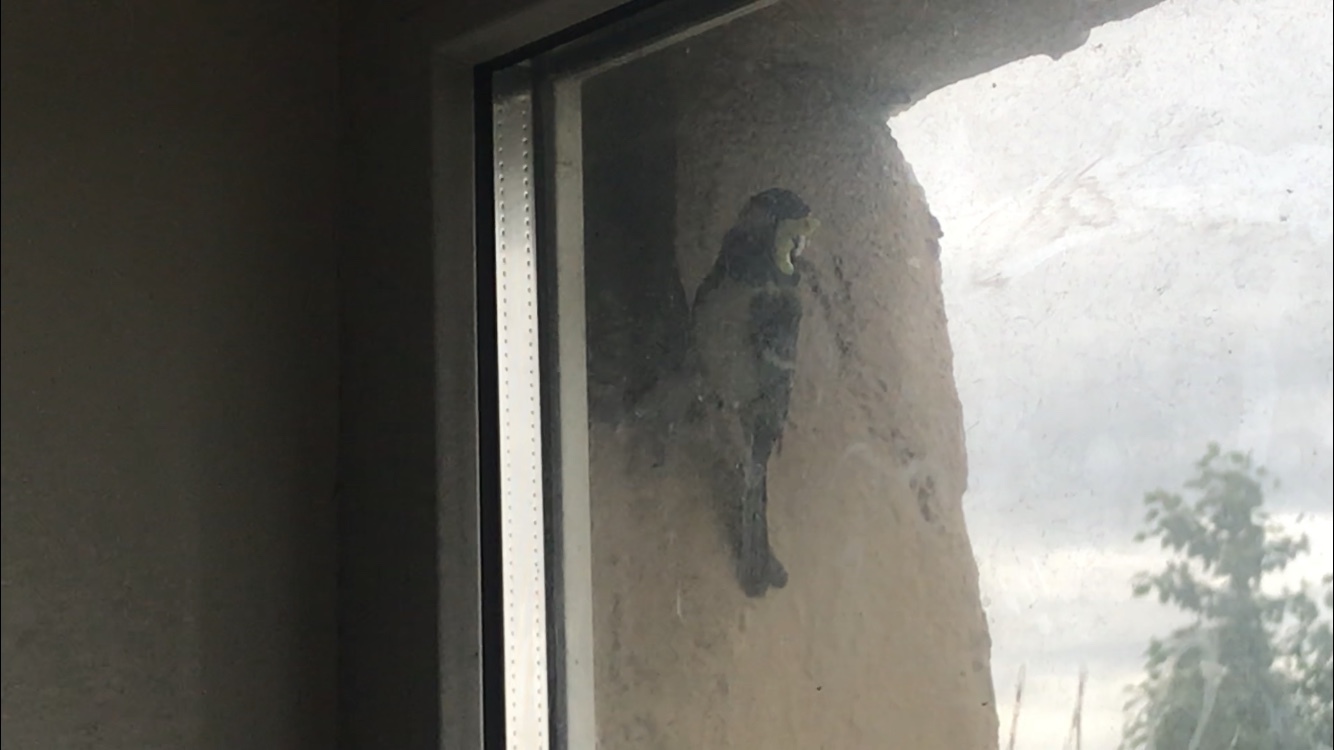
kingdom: Animalia
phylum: Chordata
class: Aves
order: Passeriformes
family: Paridae
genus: Parus
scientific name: Parus major
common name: Great tit
